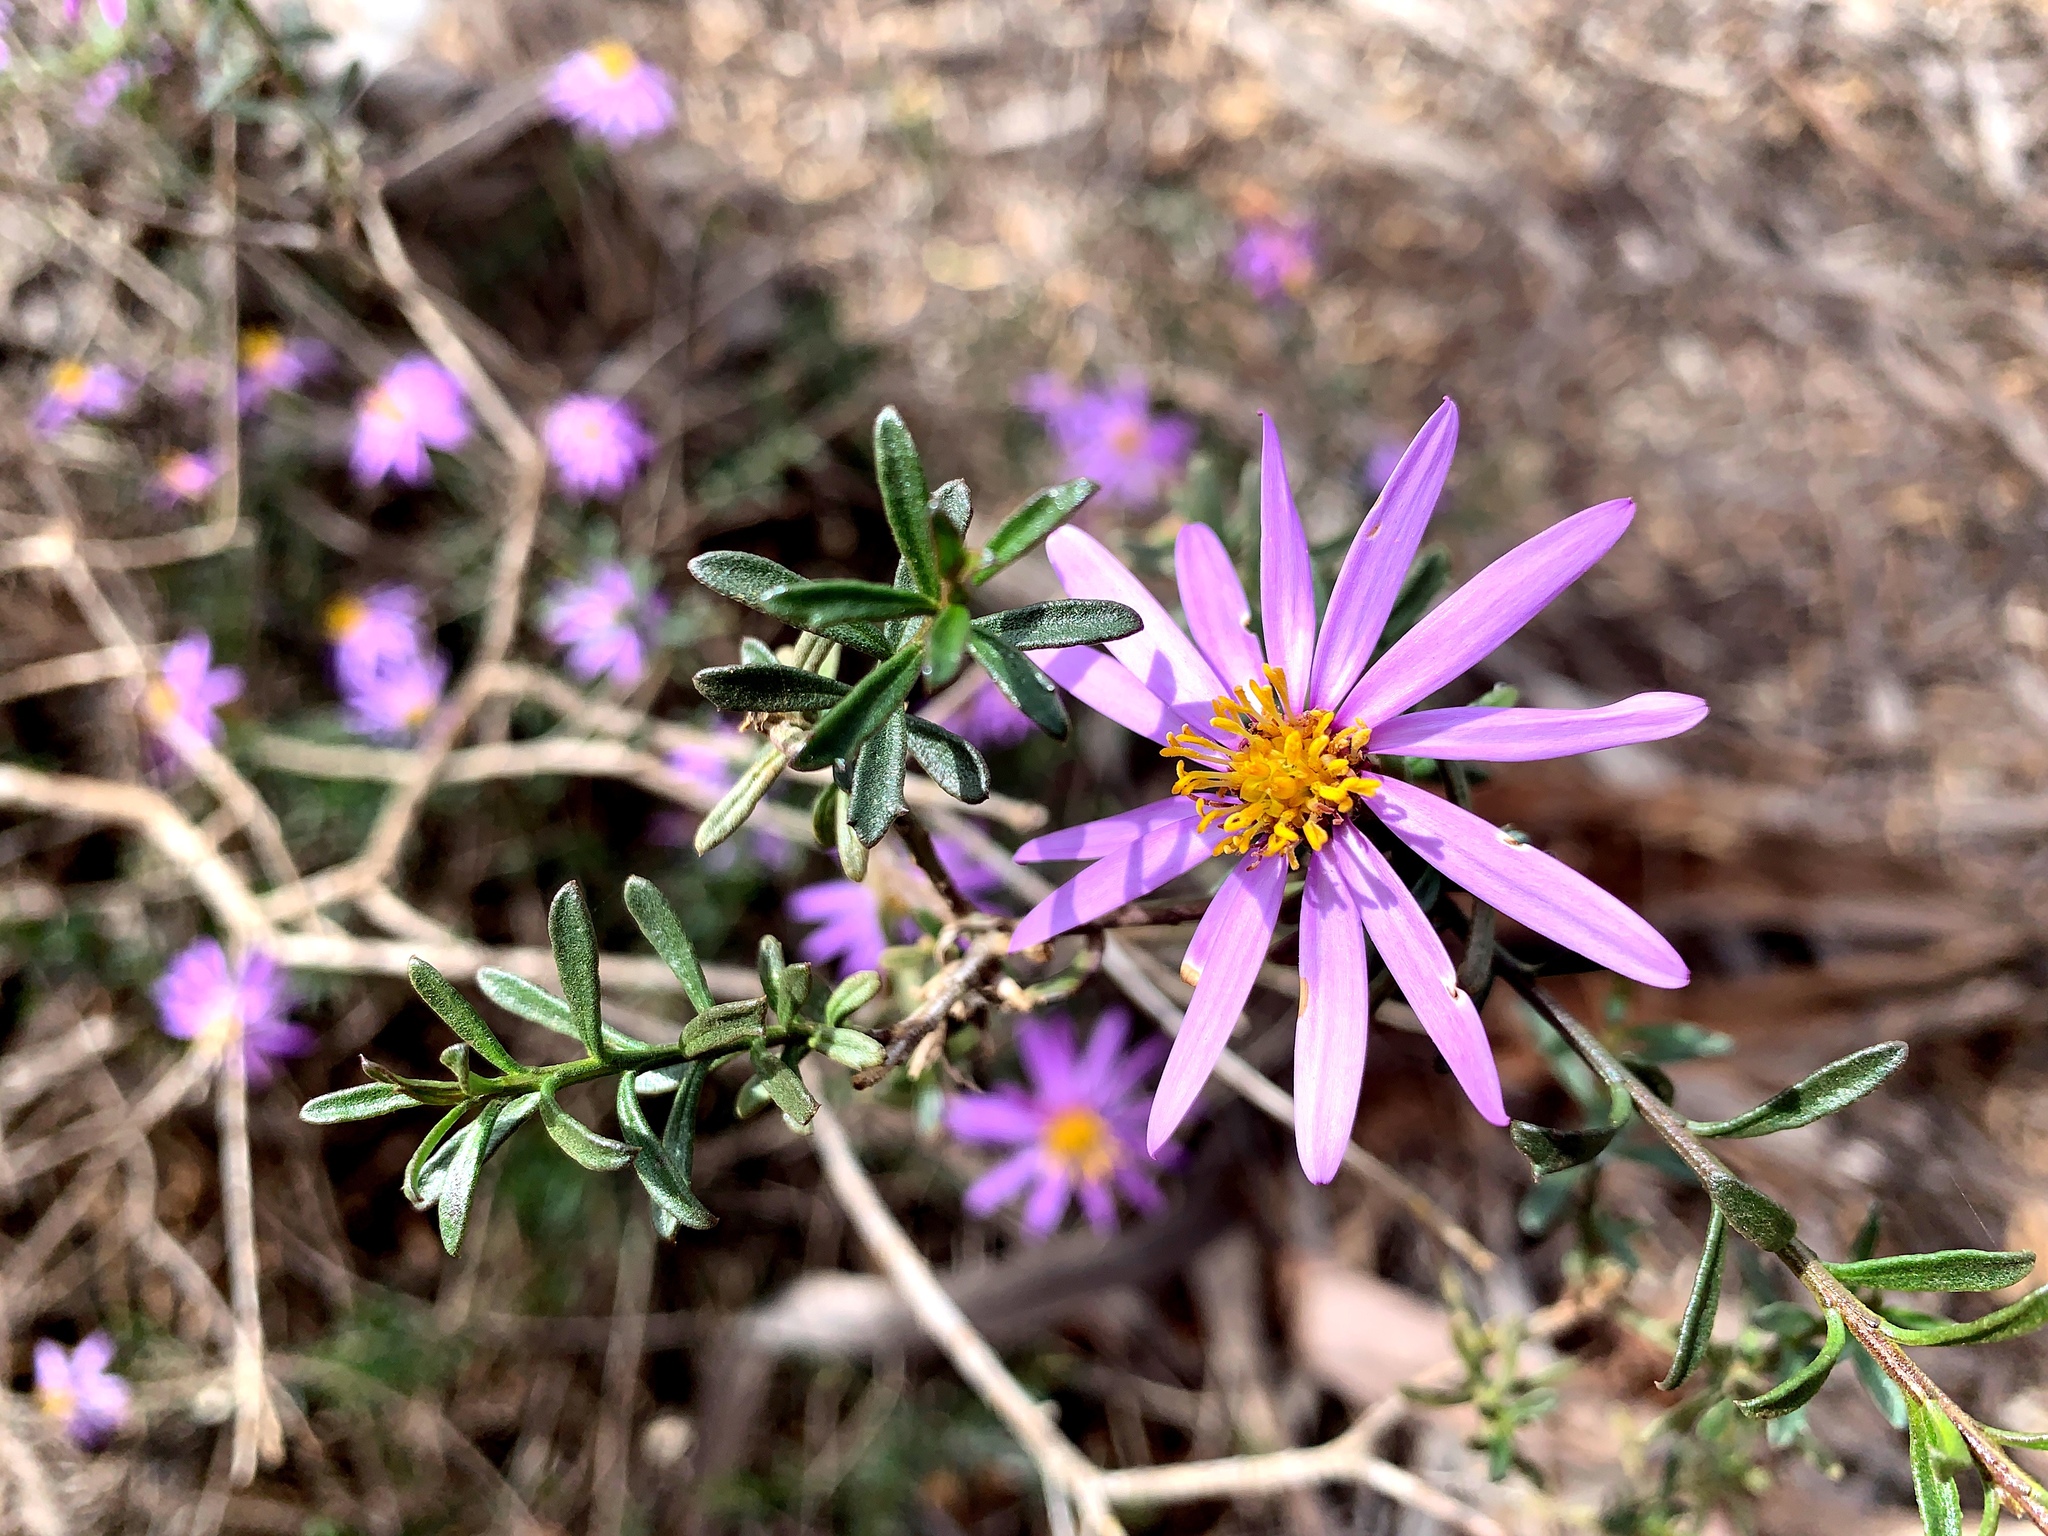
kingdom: Plantae
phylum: Tracheophyta
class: Magnoliopsida
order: Asterales
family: Asteraceae
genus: Walsholaria
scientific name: Walsholaria magniflora
